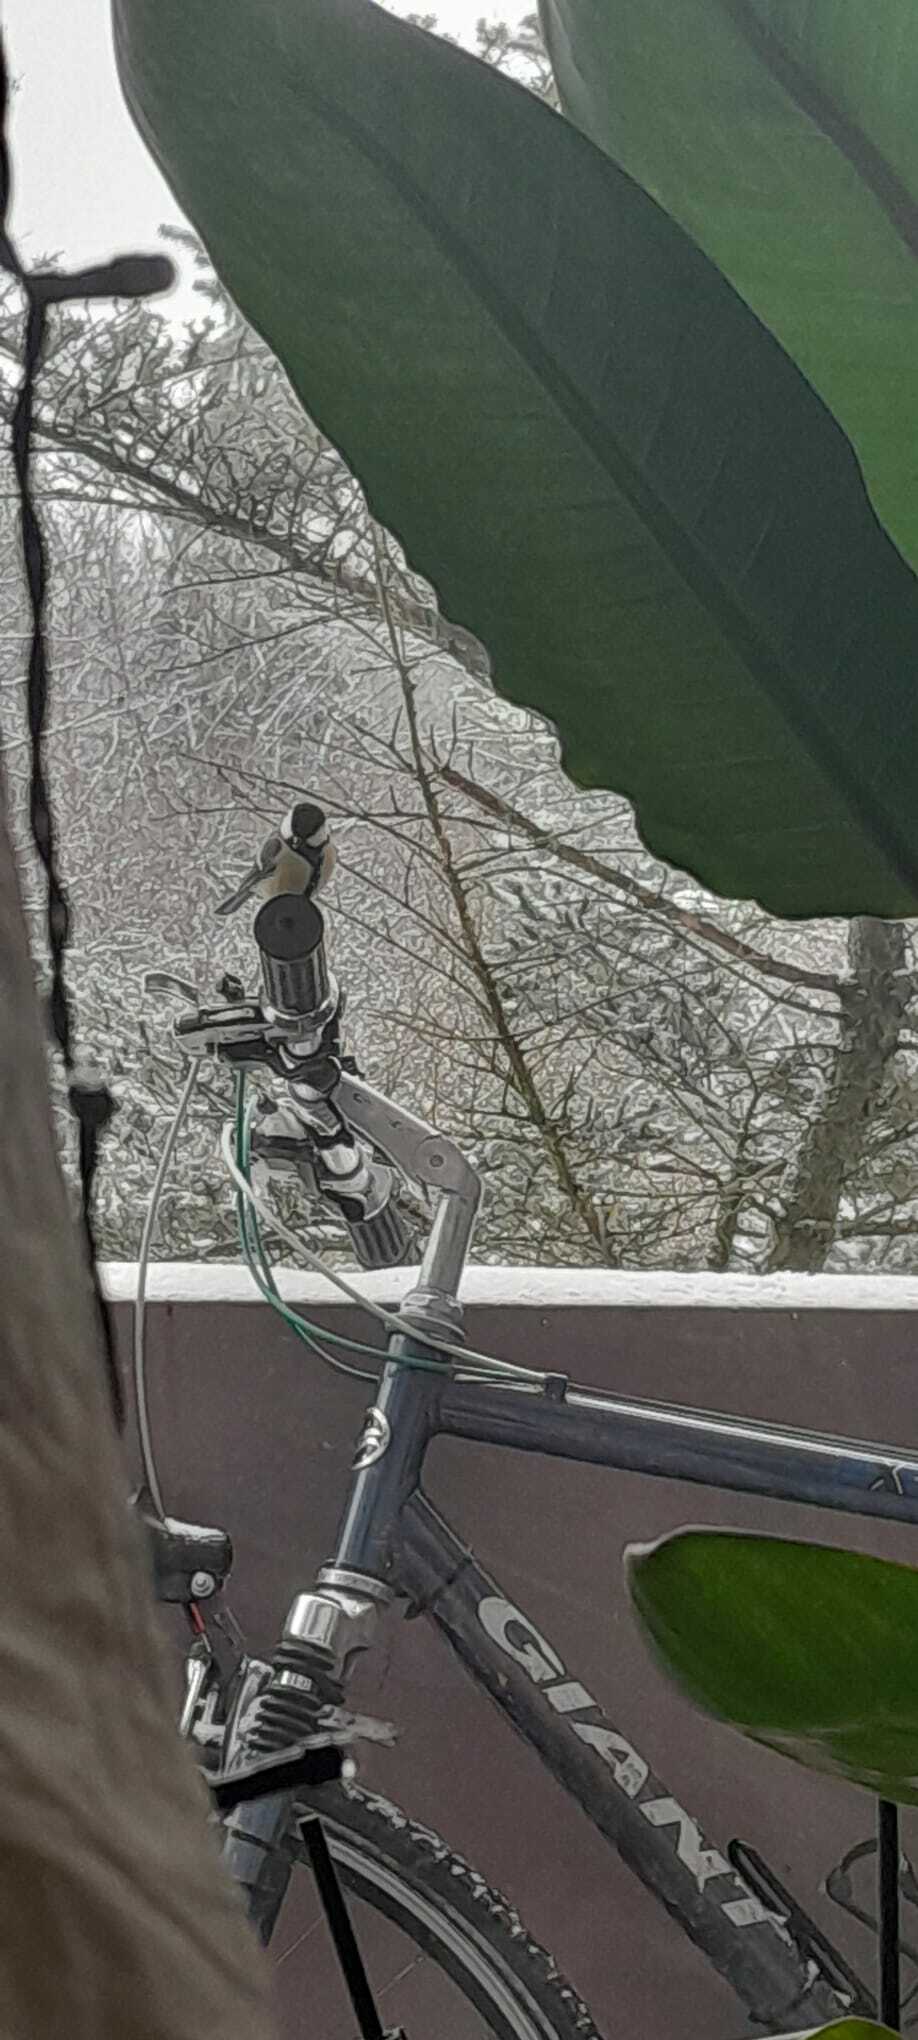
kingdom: Animalia
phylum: Chordata
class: Aves
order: Passeriformes
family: Paridae
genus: Parus
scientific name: Parus major
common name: Great tit
